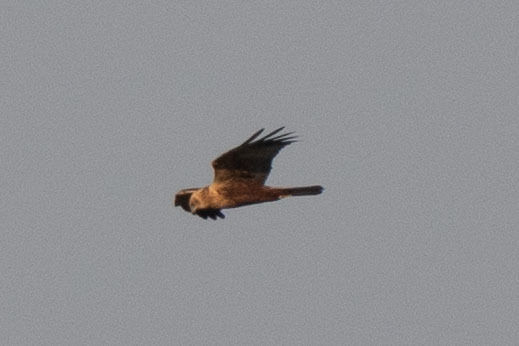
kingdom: Animalia
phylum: Chordata
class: Aves
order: Accipitriformes
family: Accipitridae
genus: Circus
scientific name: Circus aeruginosus
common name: Western marsh harrier
